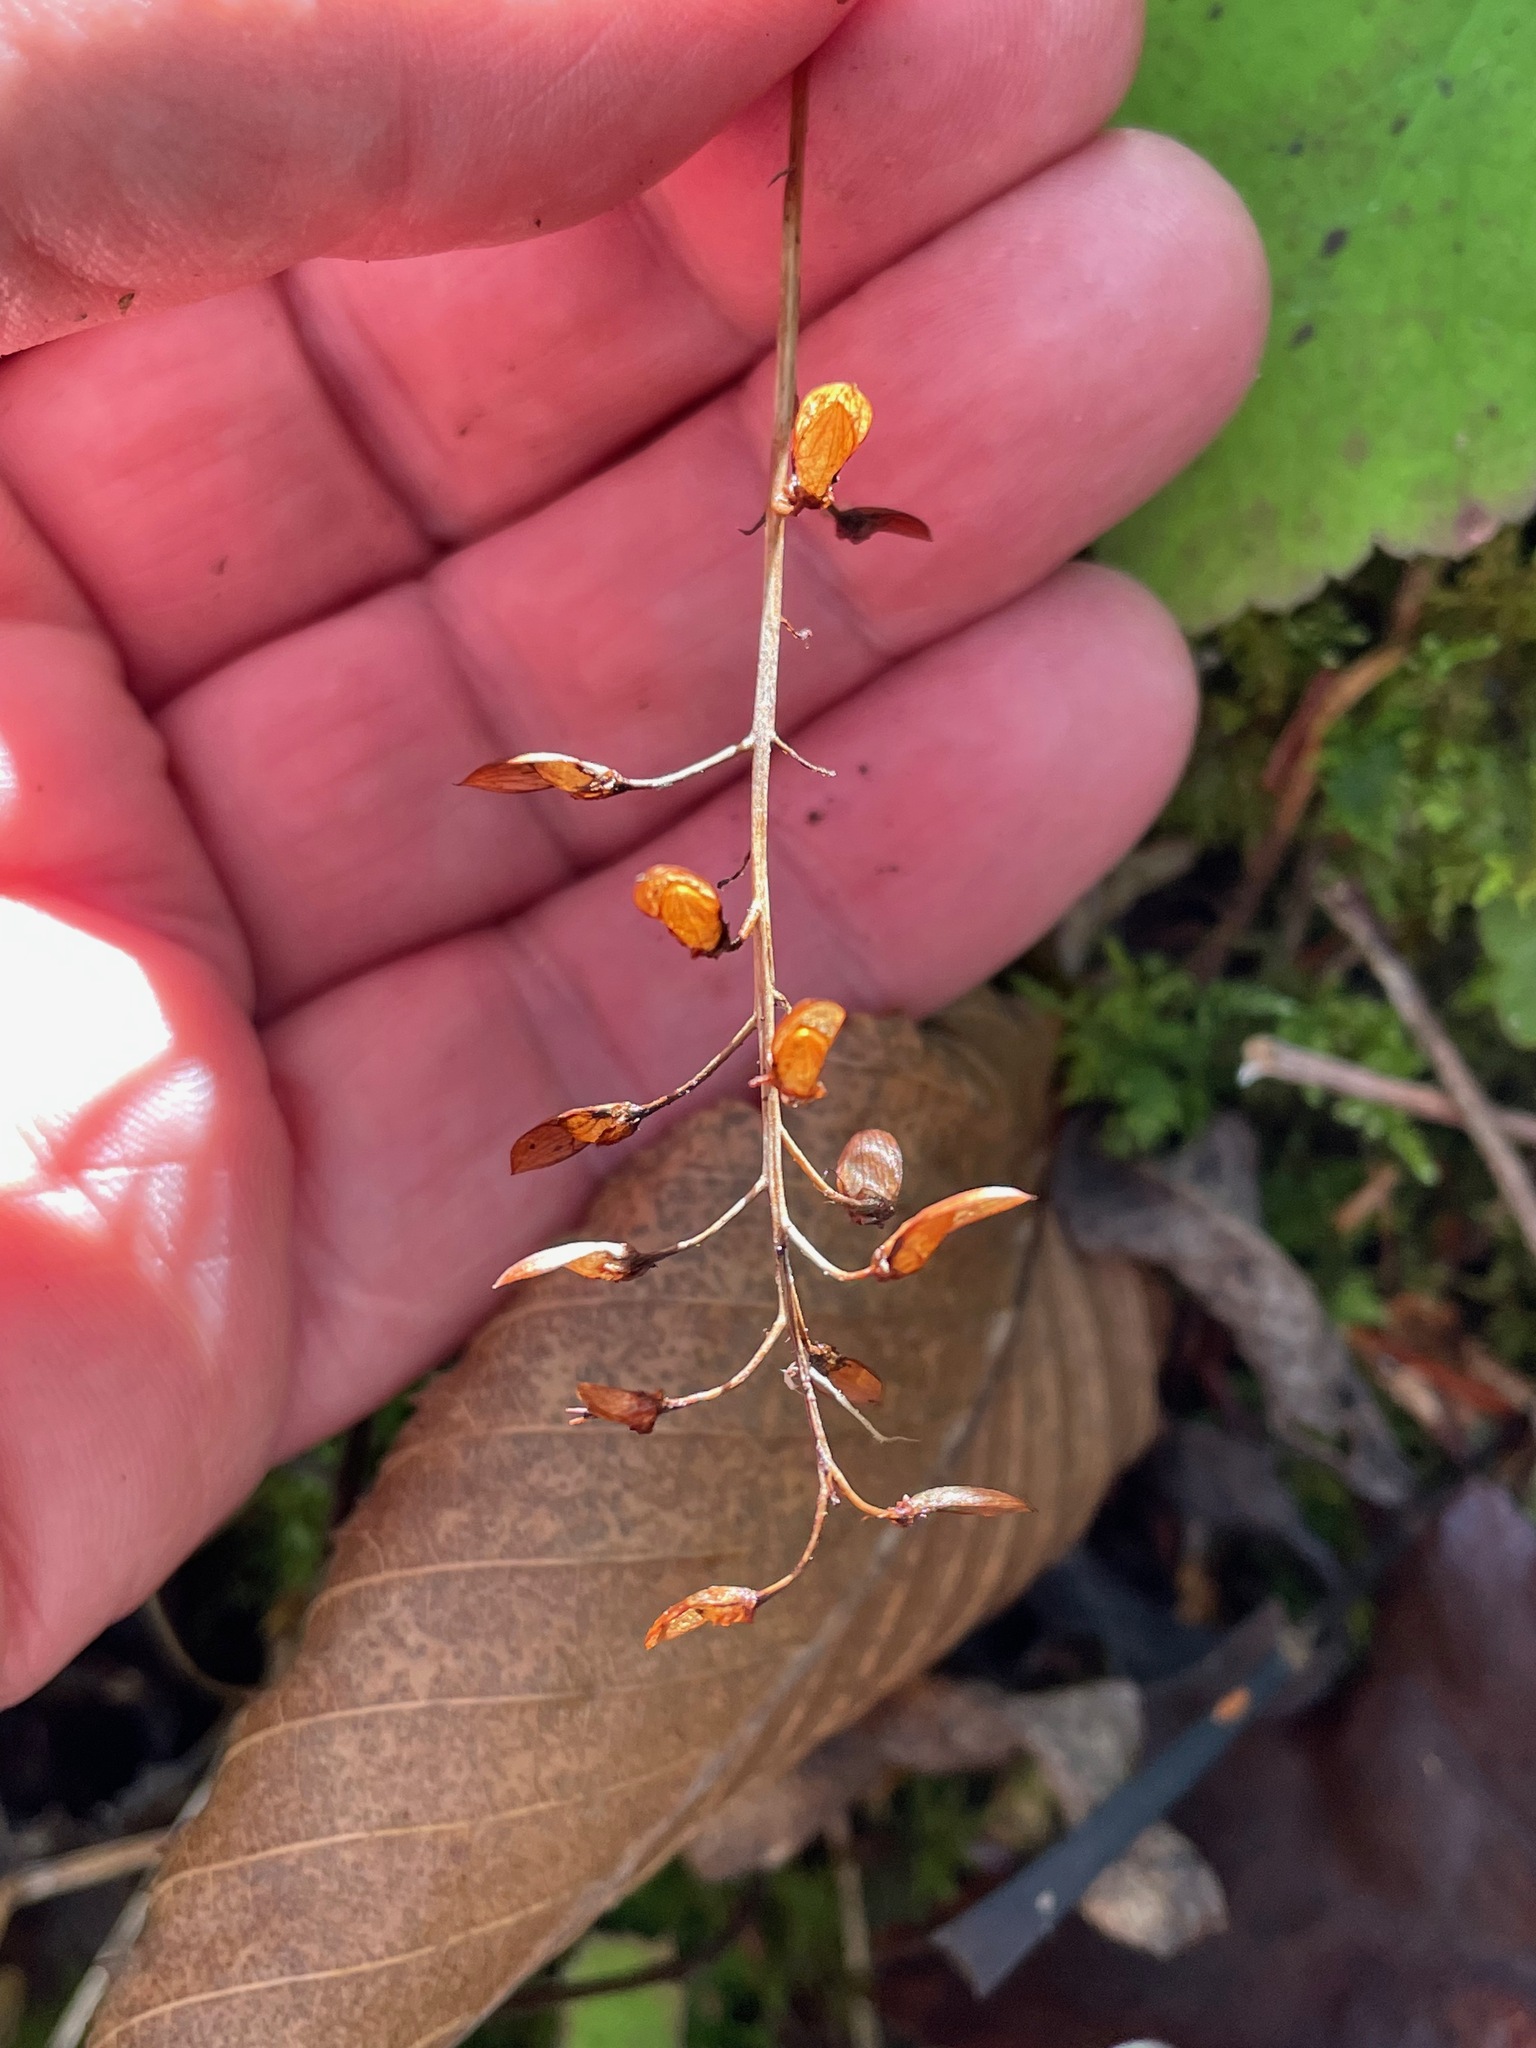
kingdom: Plantae
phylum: Tracheophyta
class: Magnoliopsida
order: Saxifragales
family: Saxifragaceae
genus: Tiarella
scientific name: Tiarella stolonifera
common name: Stoloniferous foamflower
